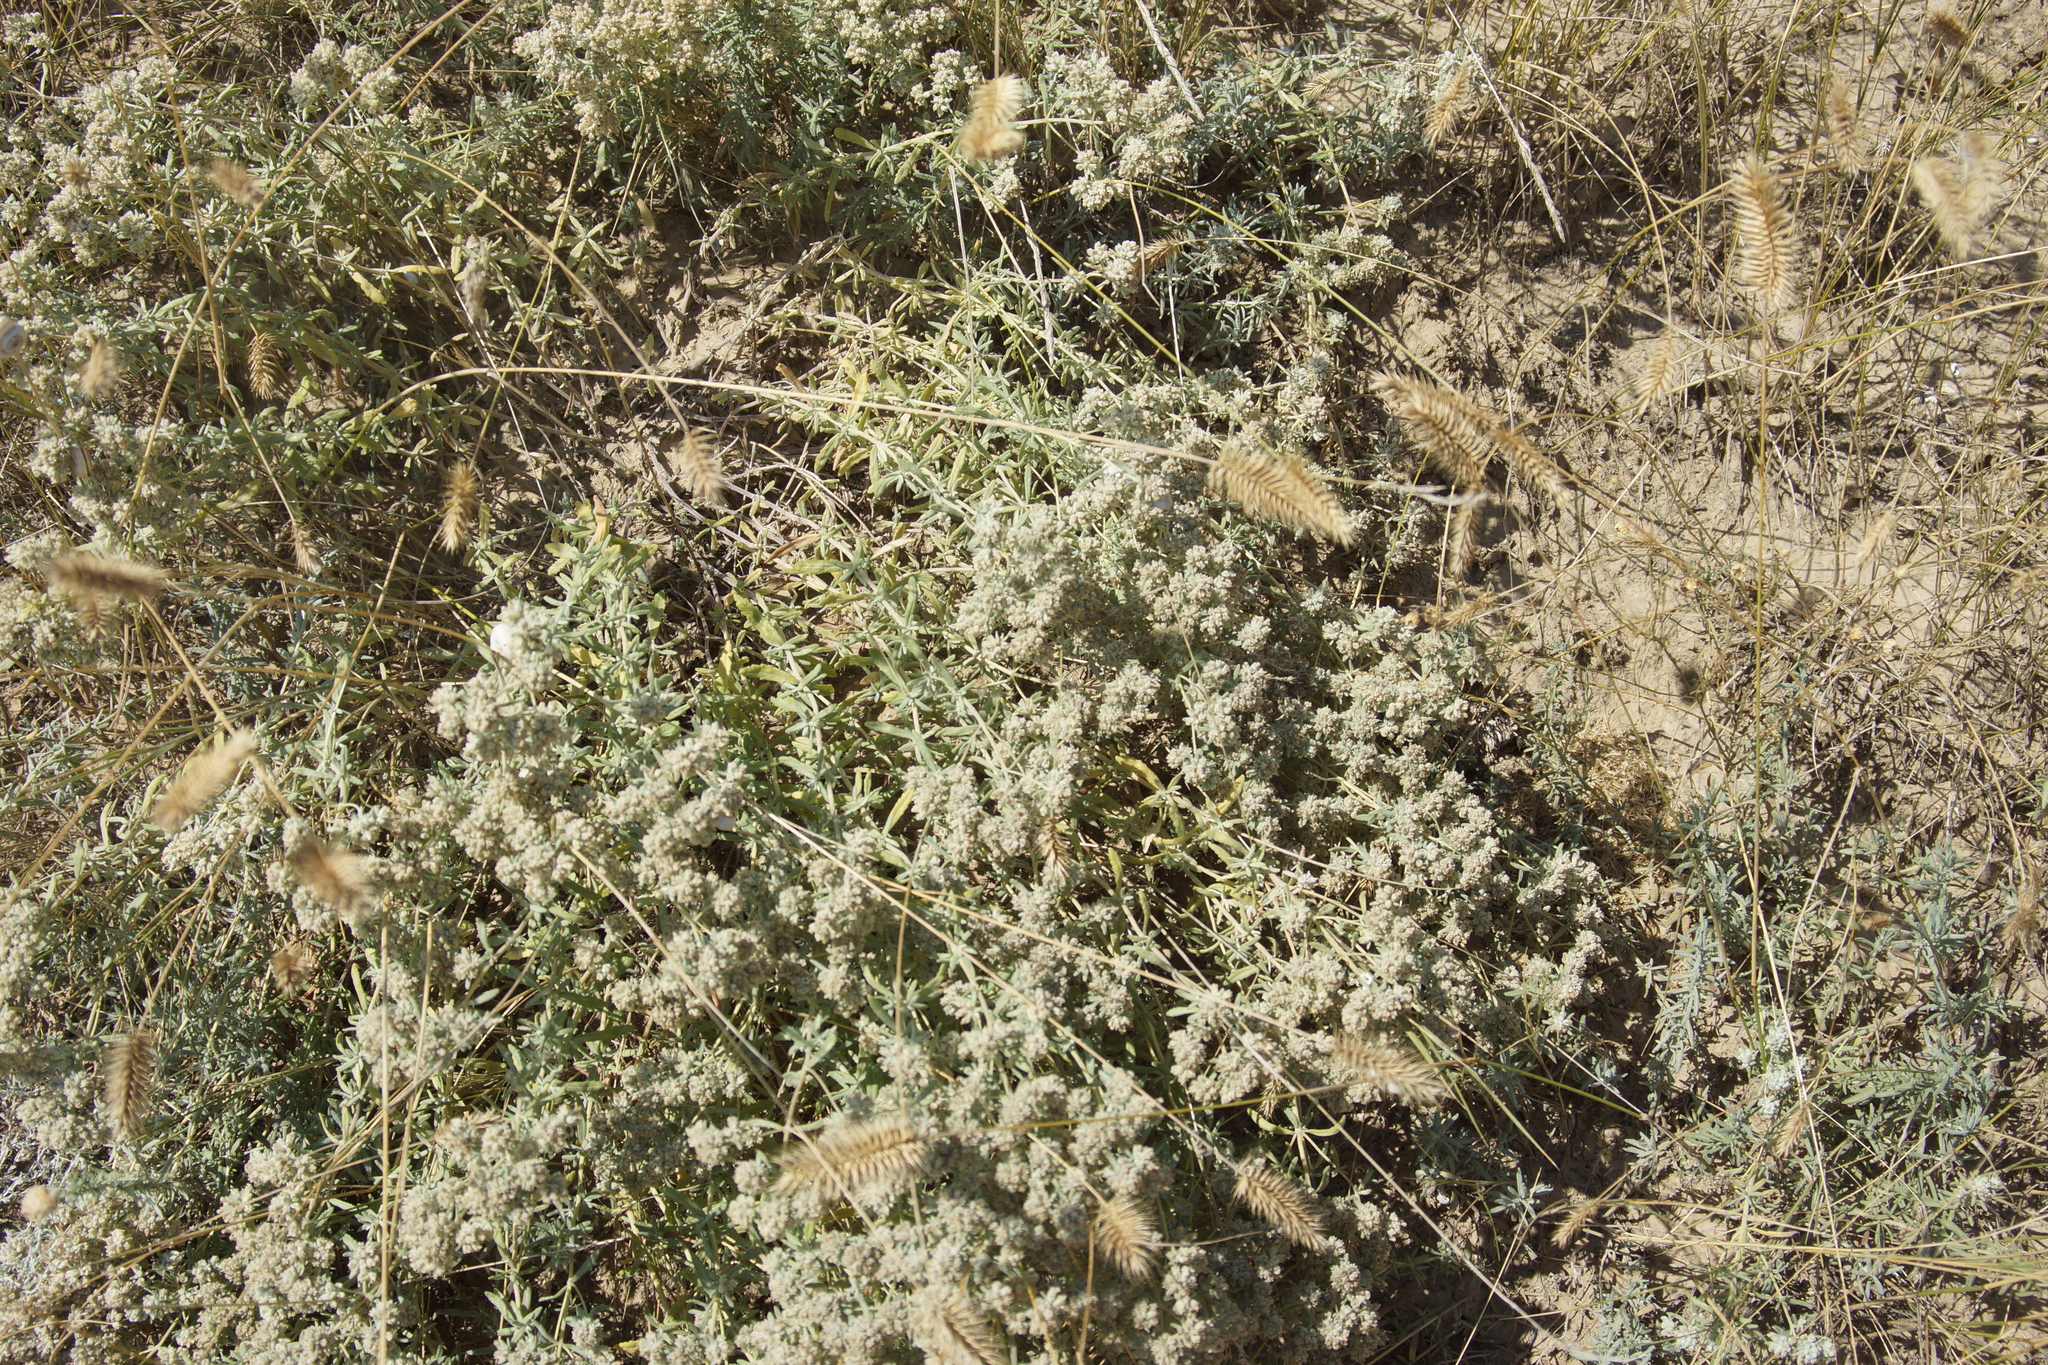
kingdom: Plantae
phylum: Tracheophyta
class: Magnoliopsida
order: Lamiales
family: Lamiaceae
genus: Teucrium
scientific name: Teucrium polium
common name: Poley
